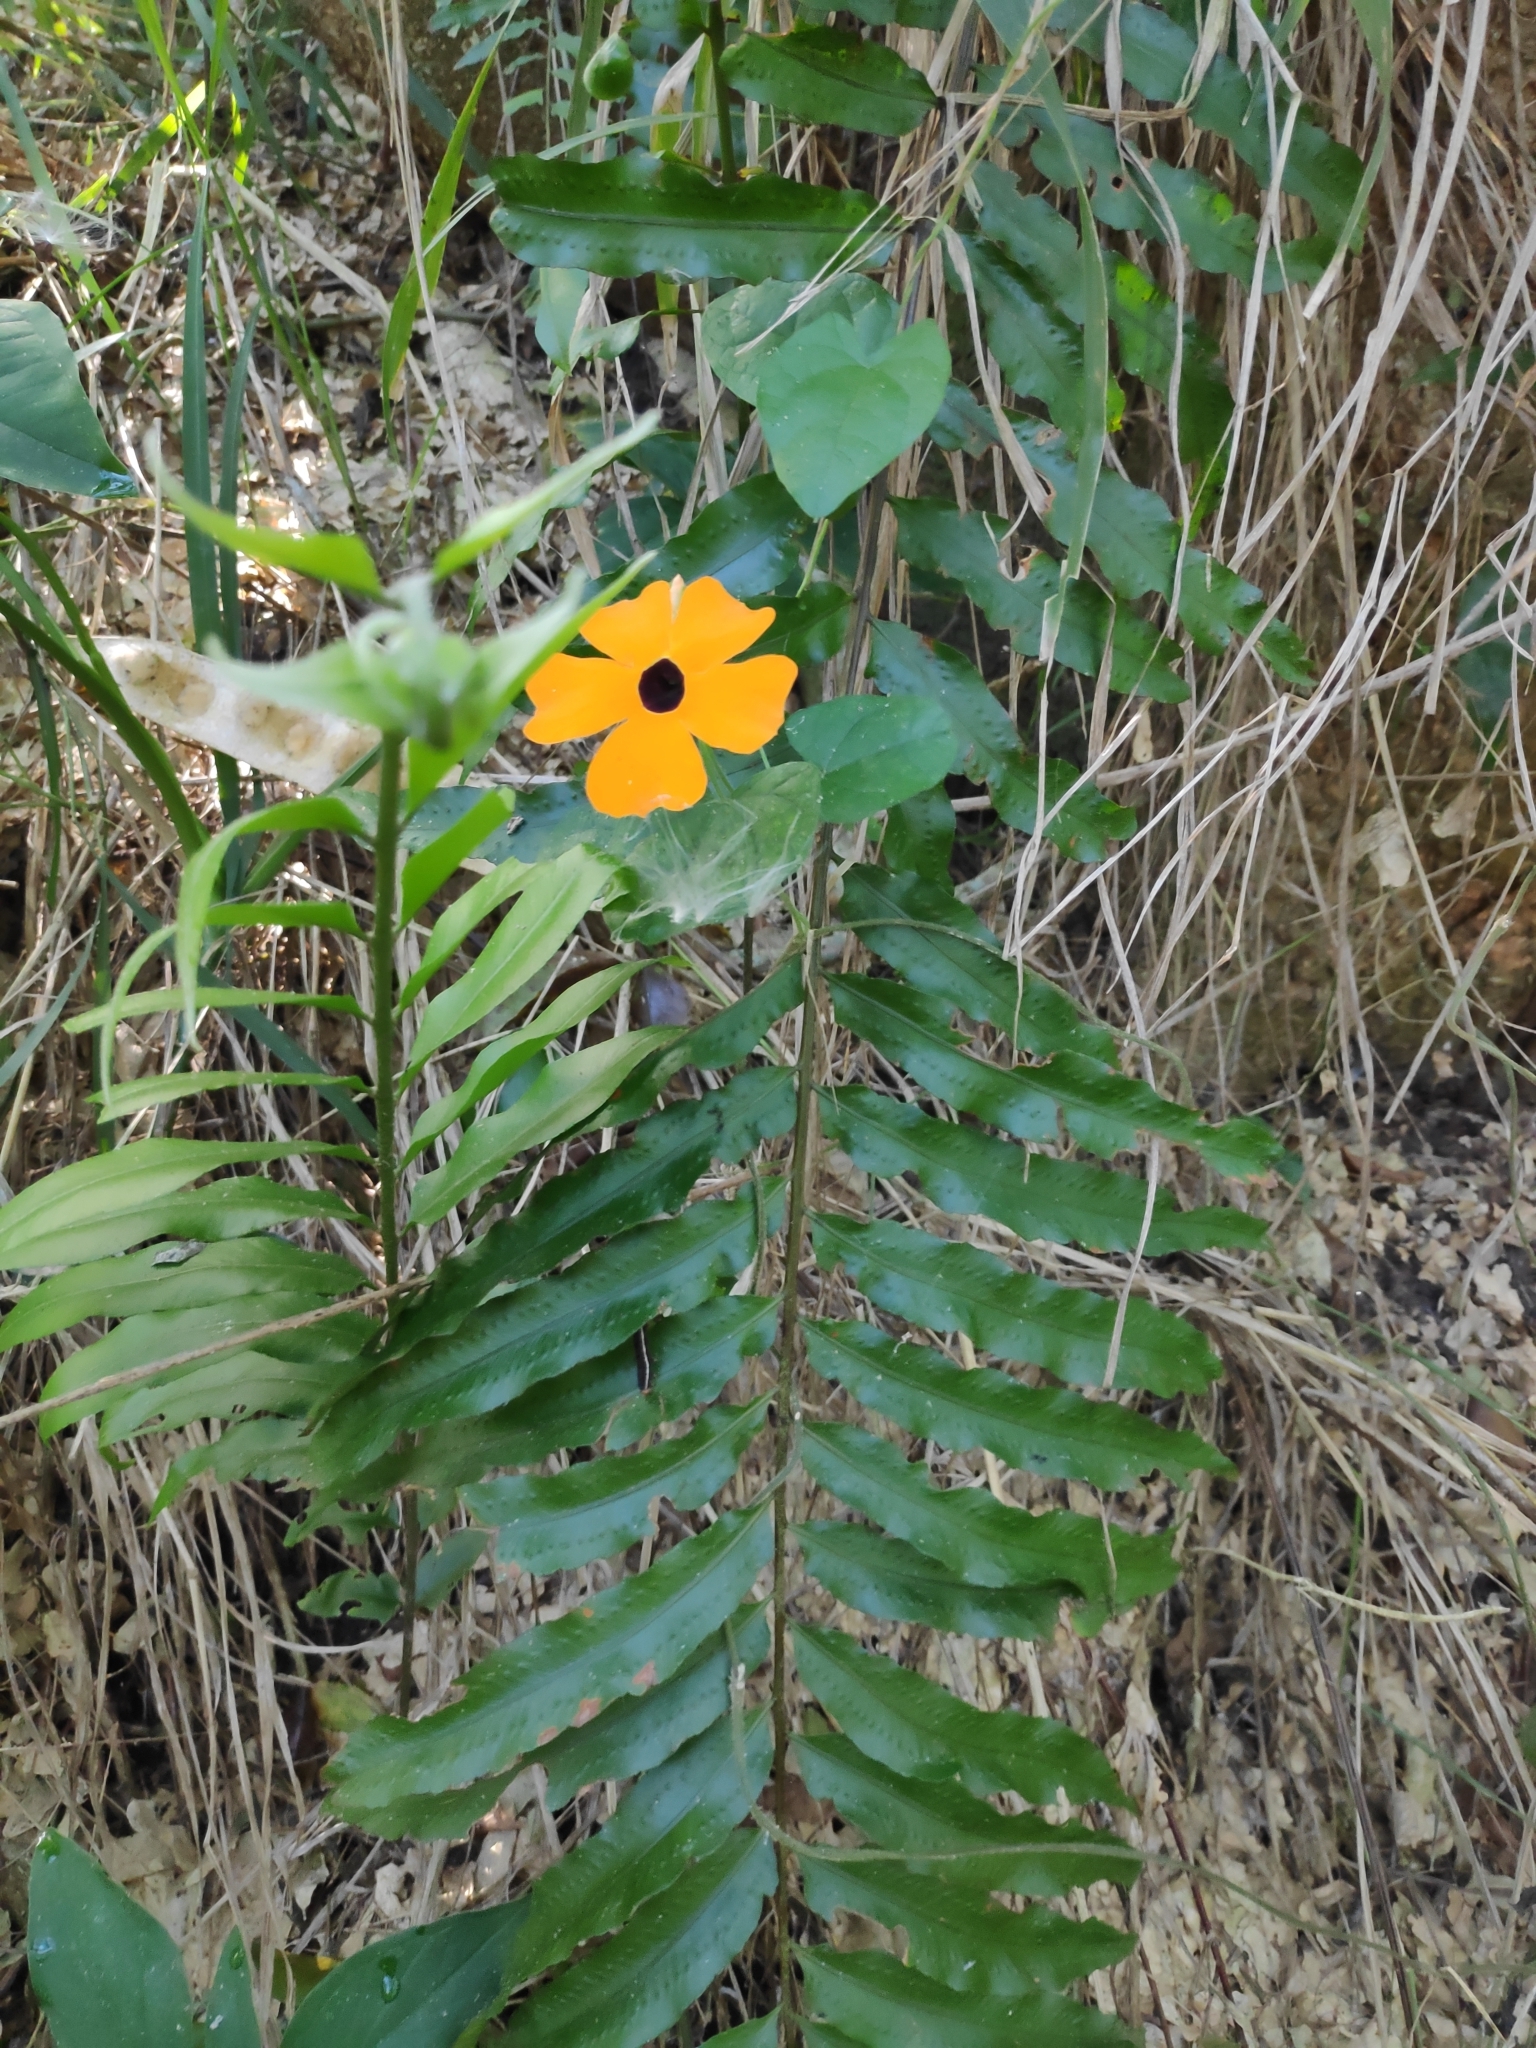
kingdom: Plantae
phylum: Tracheophyta
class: Magnoliopsida
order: Lamiales
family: Acanthaceae
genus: Thunbergia
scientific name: Thunbergia alata
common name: Blackeyed susan vine
